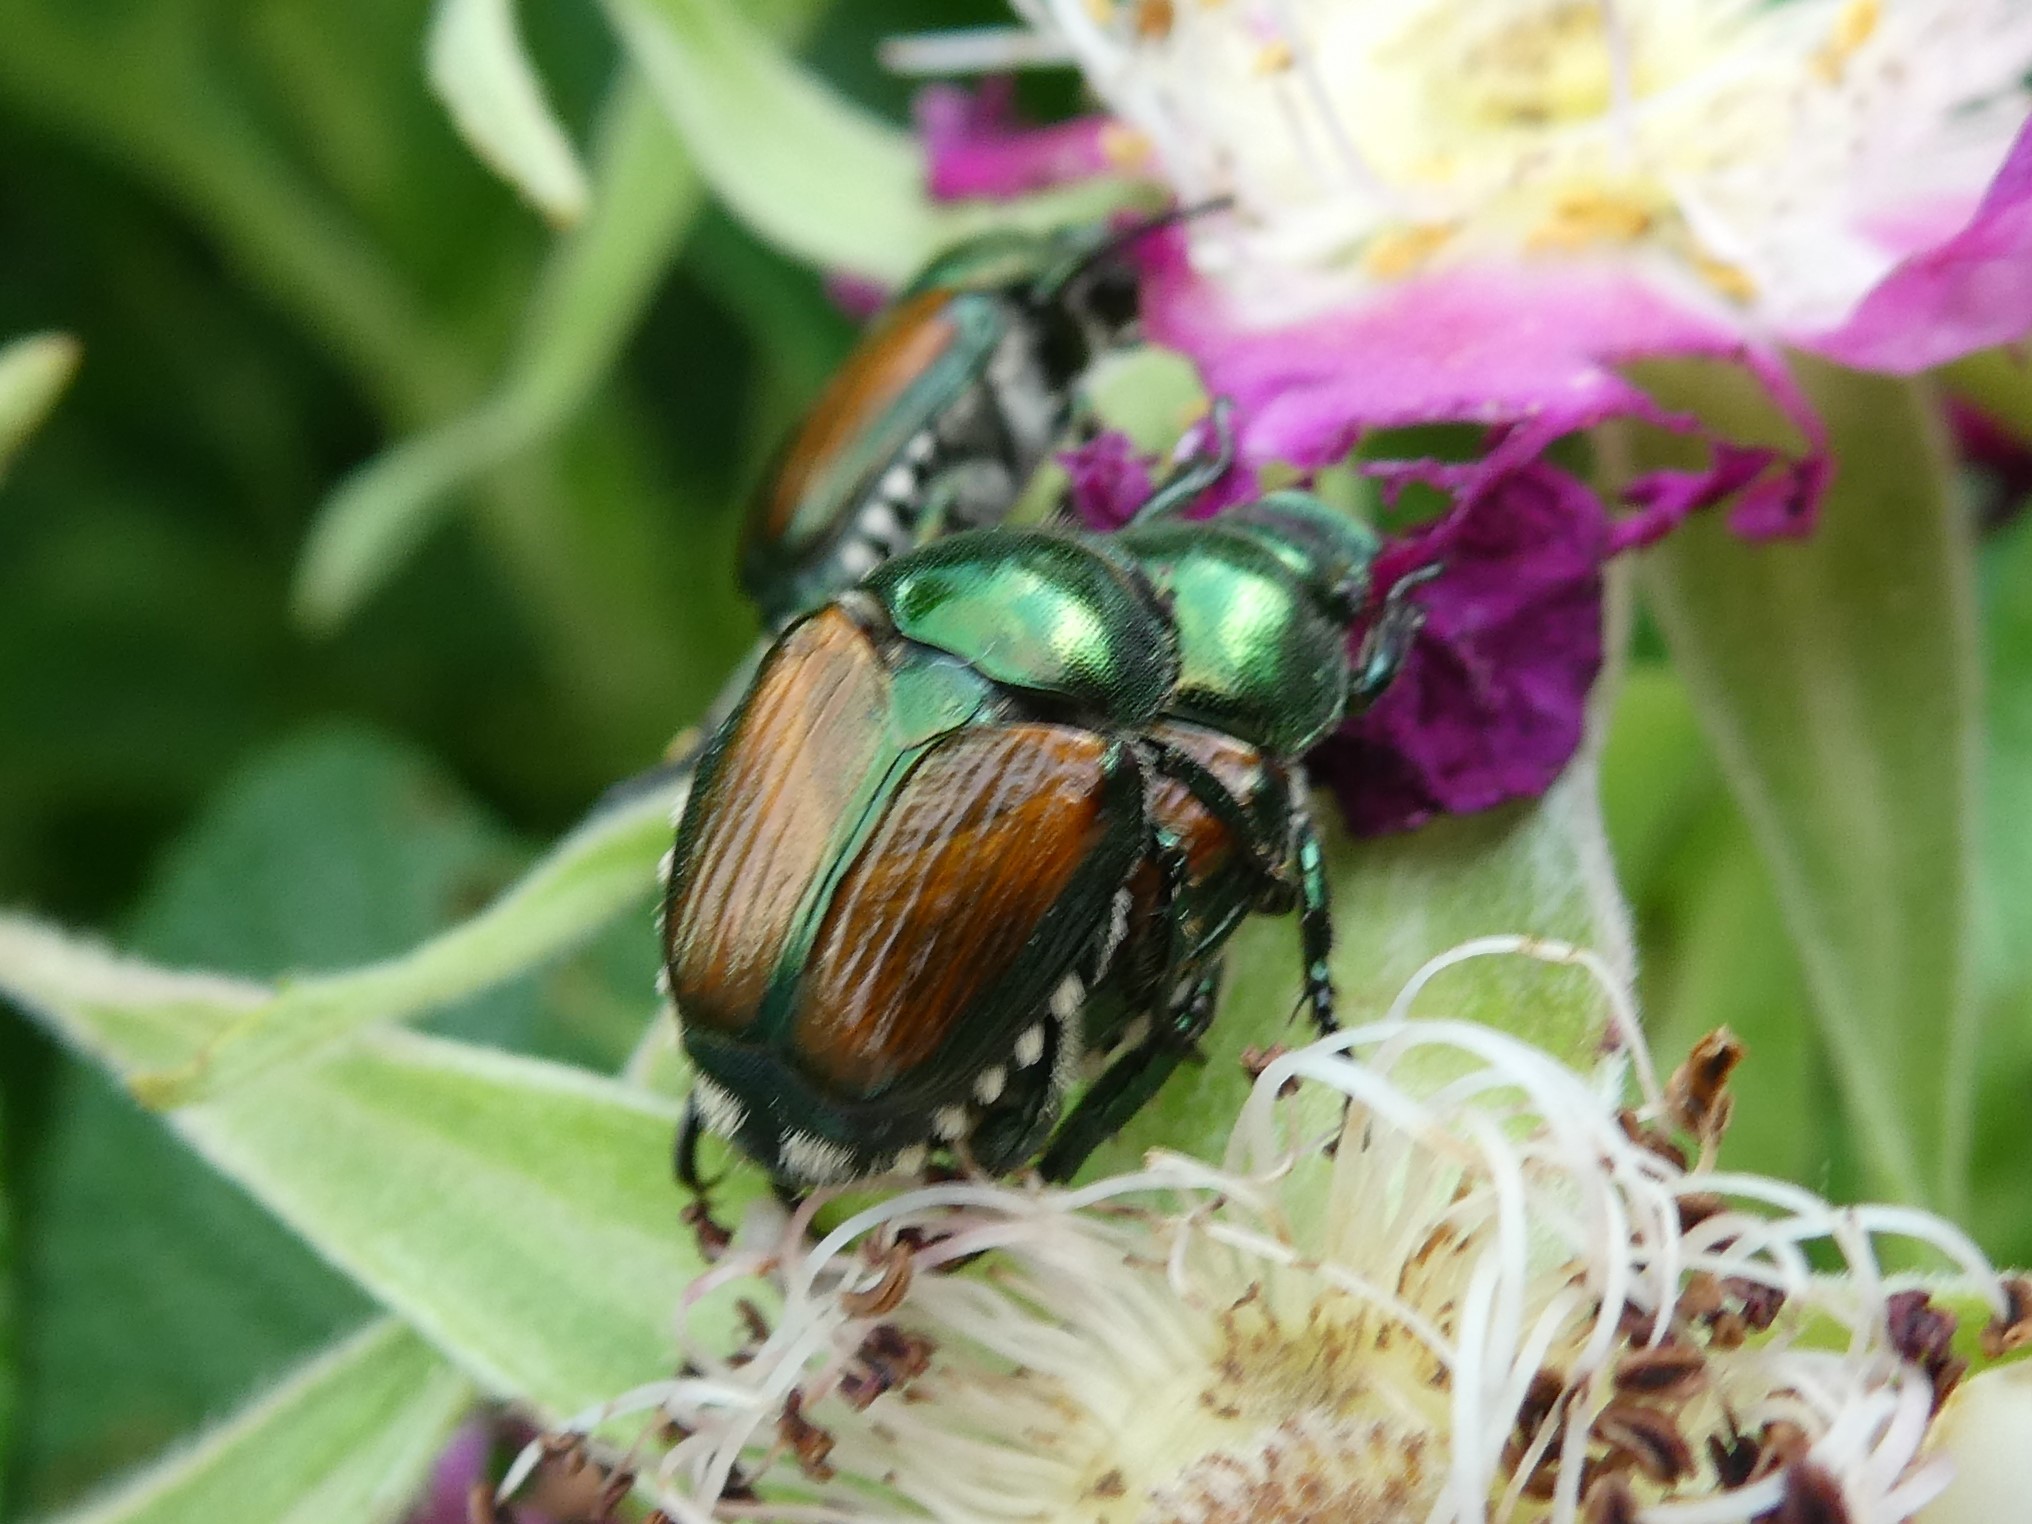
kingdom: Animalia
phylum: Arthropoda
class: Insecta
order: Coleoptera
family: Scarabaeidae
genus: Popillia
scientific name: Popillia japonica
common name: Japanese beetle
